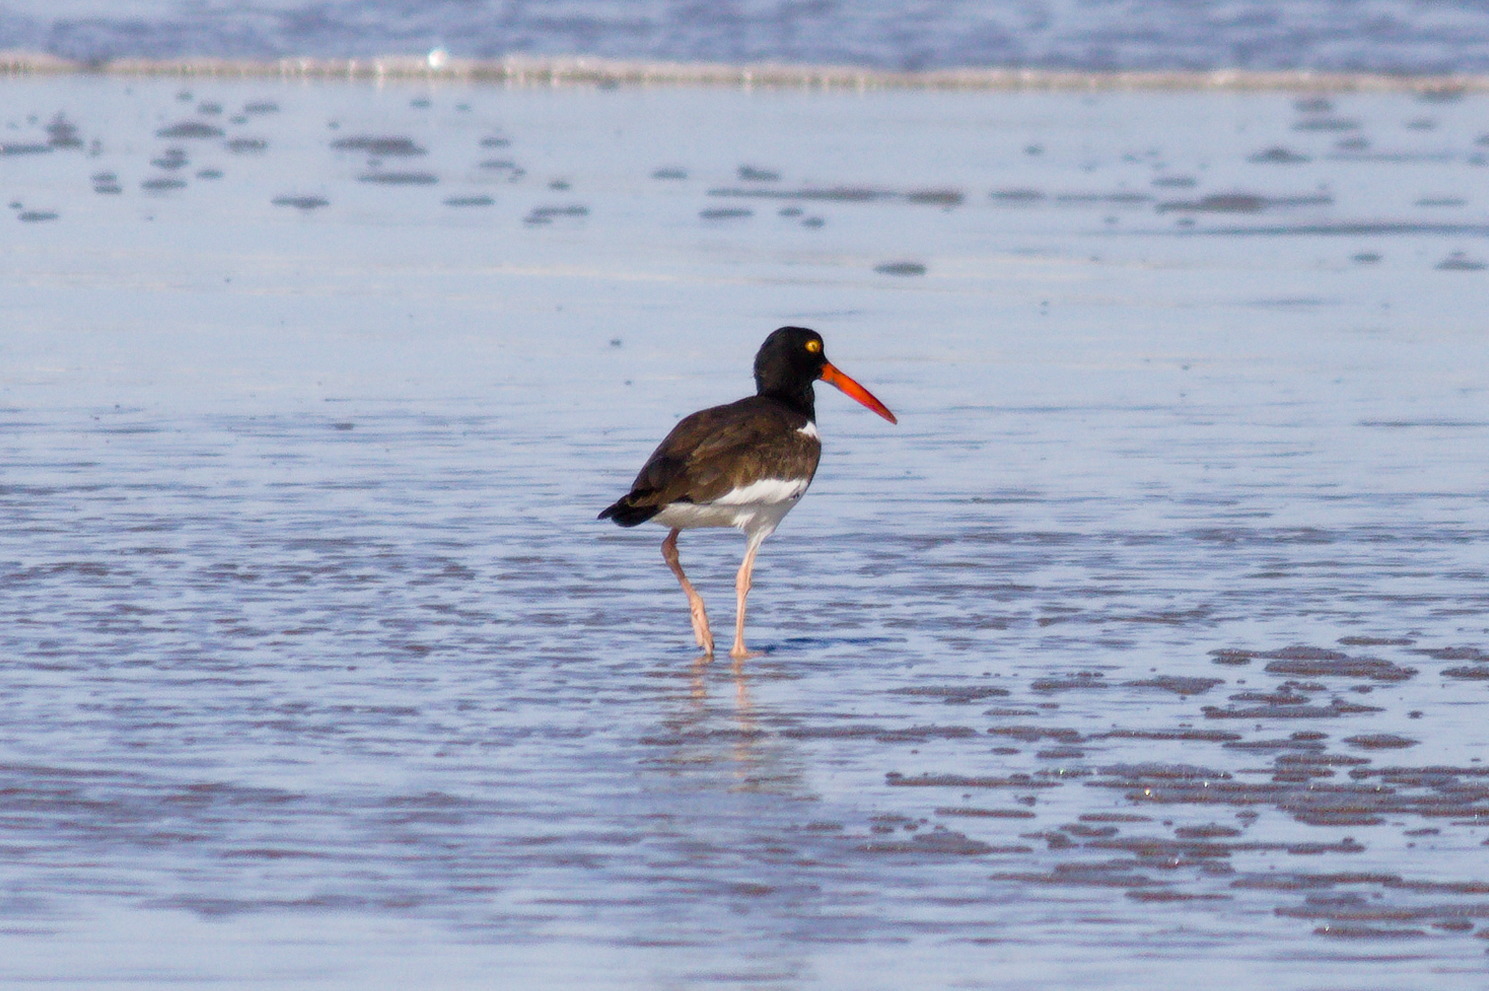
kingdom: Animalia
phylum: Chordata
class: Aves
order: Charadriiformes
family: Haematopodidae
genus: Haematopus
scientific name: Haematopus palliatus
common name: American oystercatcher
